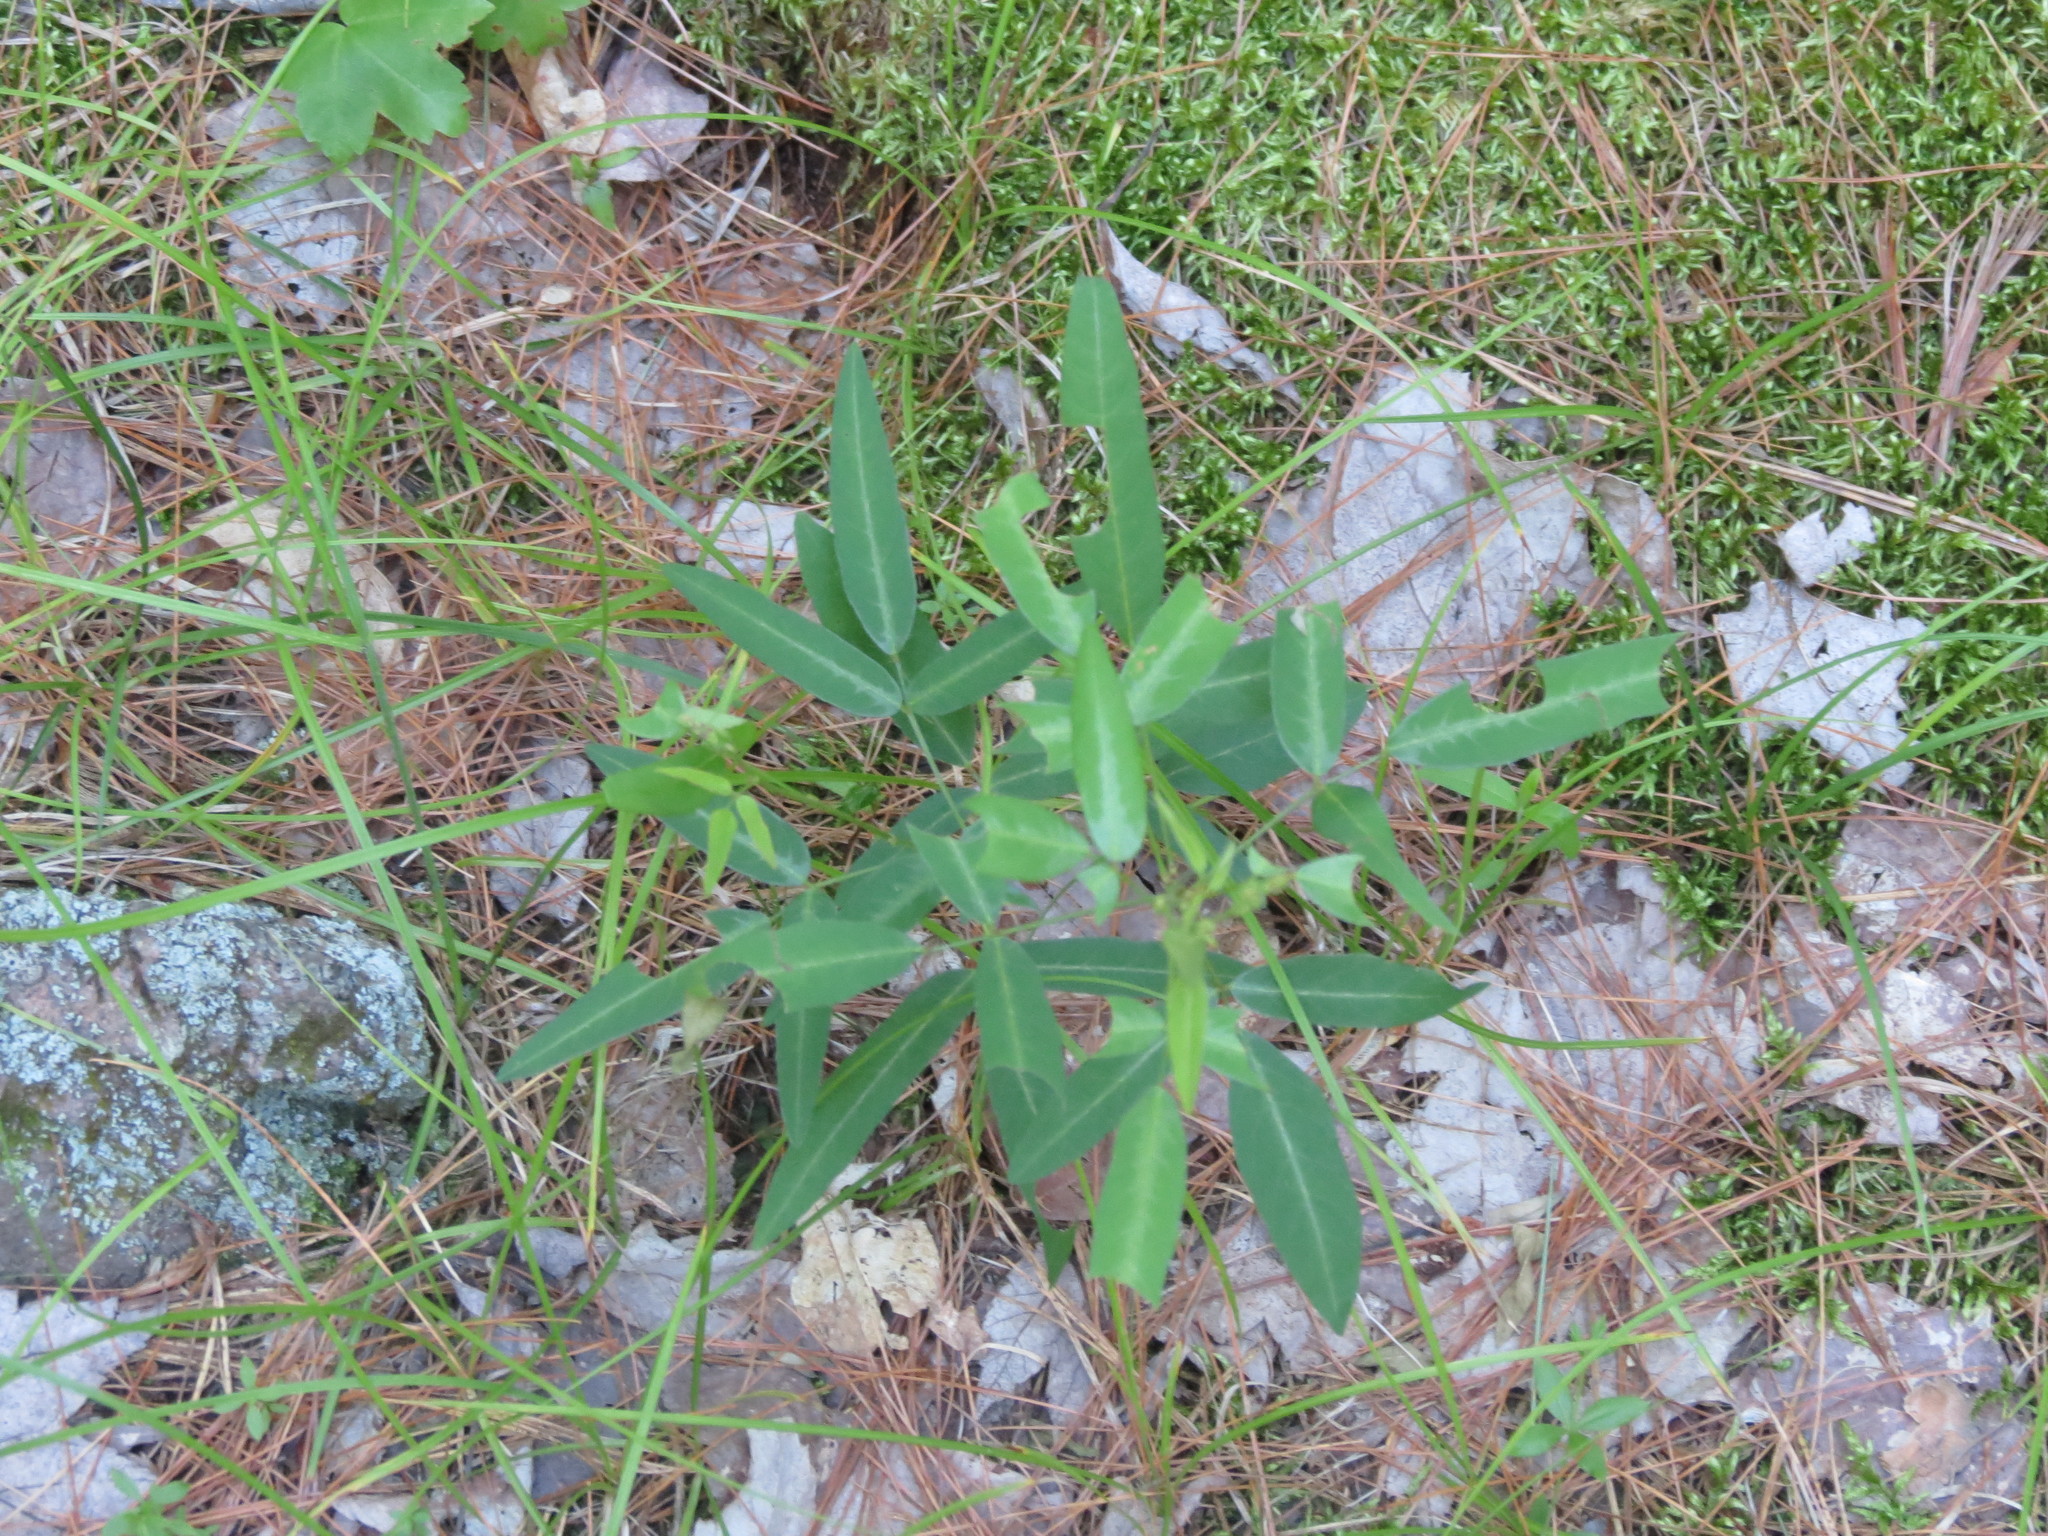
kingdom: Plantae
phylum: Tracheophyta
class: Magnoliopsida
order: Fabales
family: Fabaceae
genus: Desmodium
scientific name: Desmodium paniculatum
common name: Panicled tick-clover
